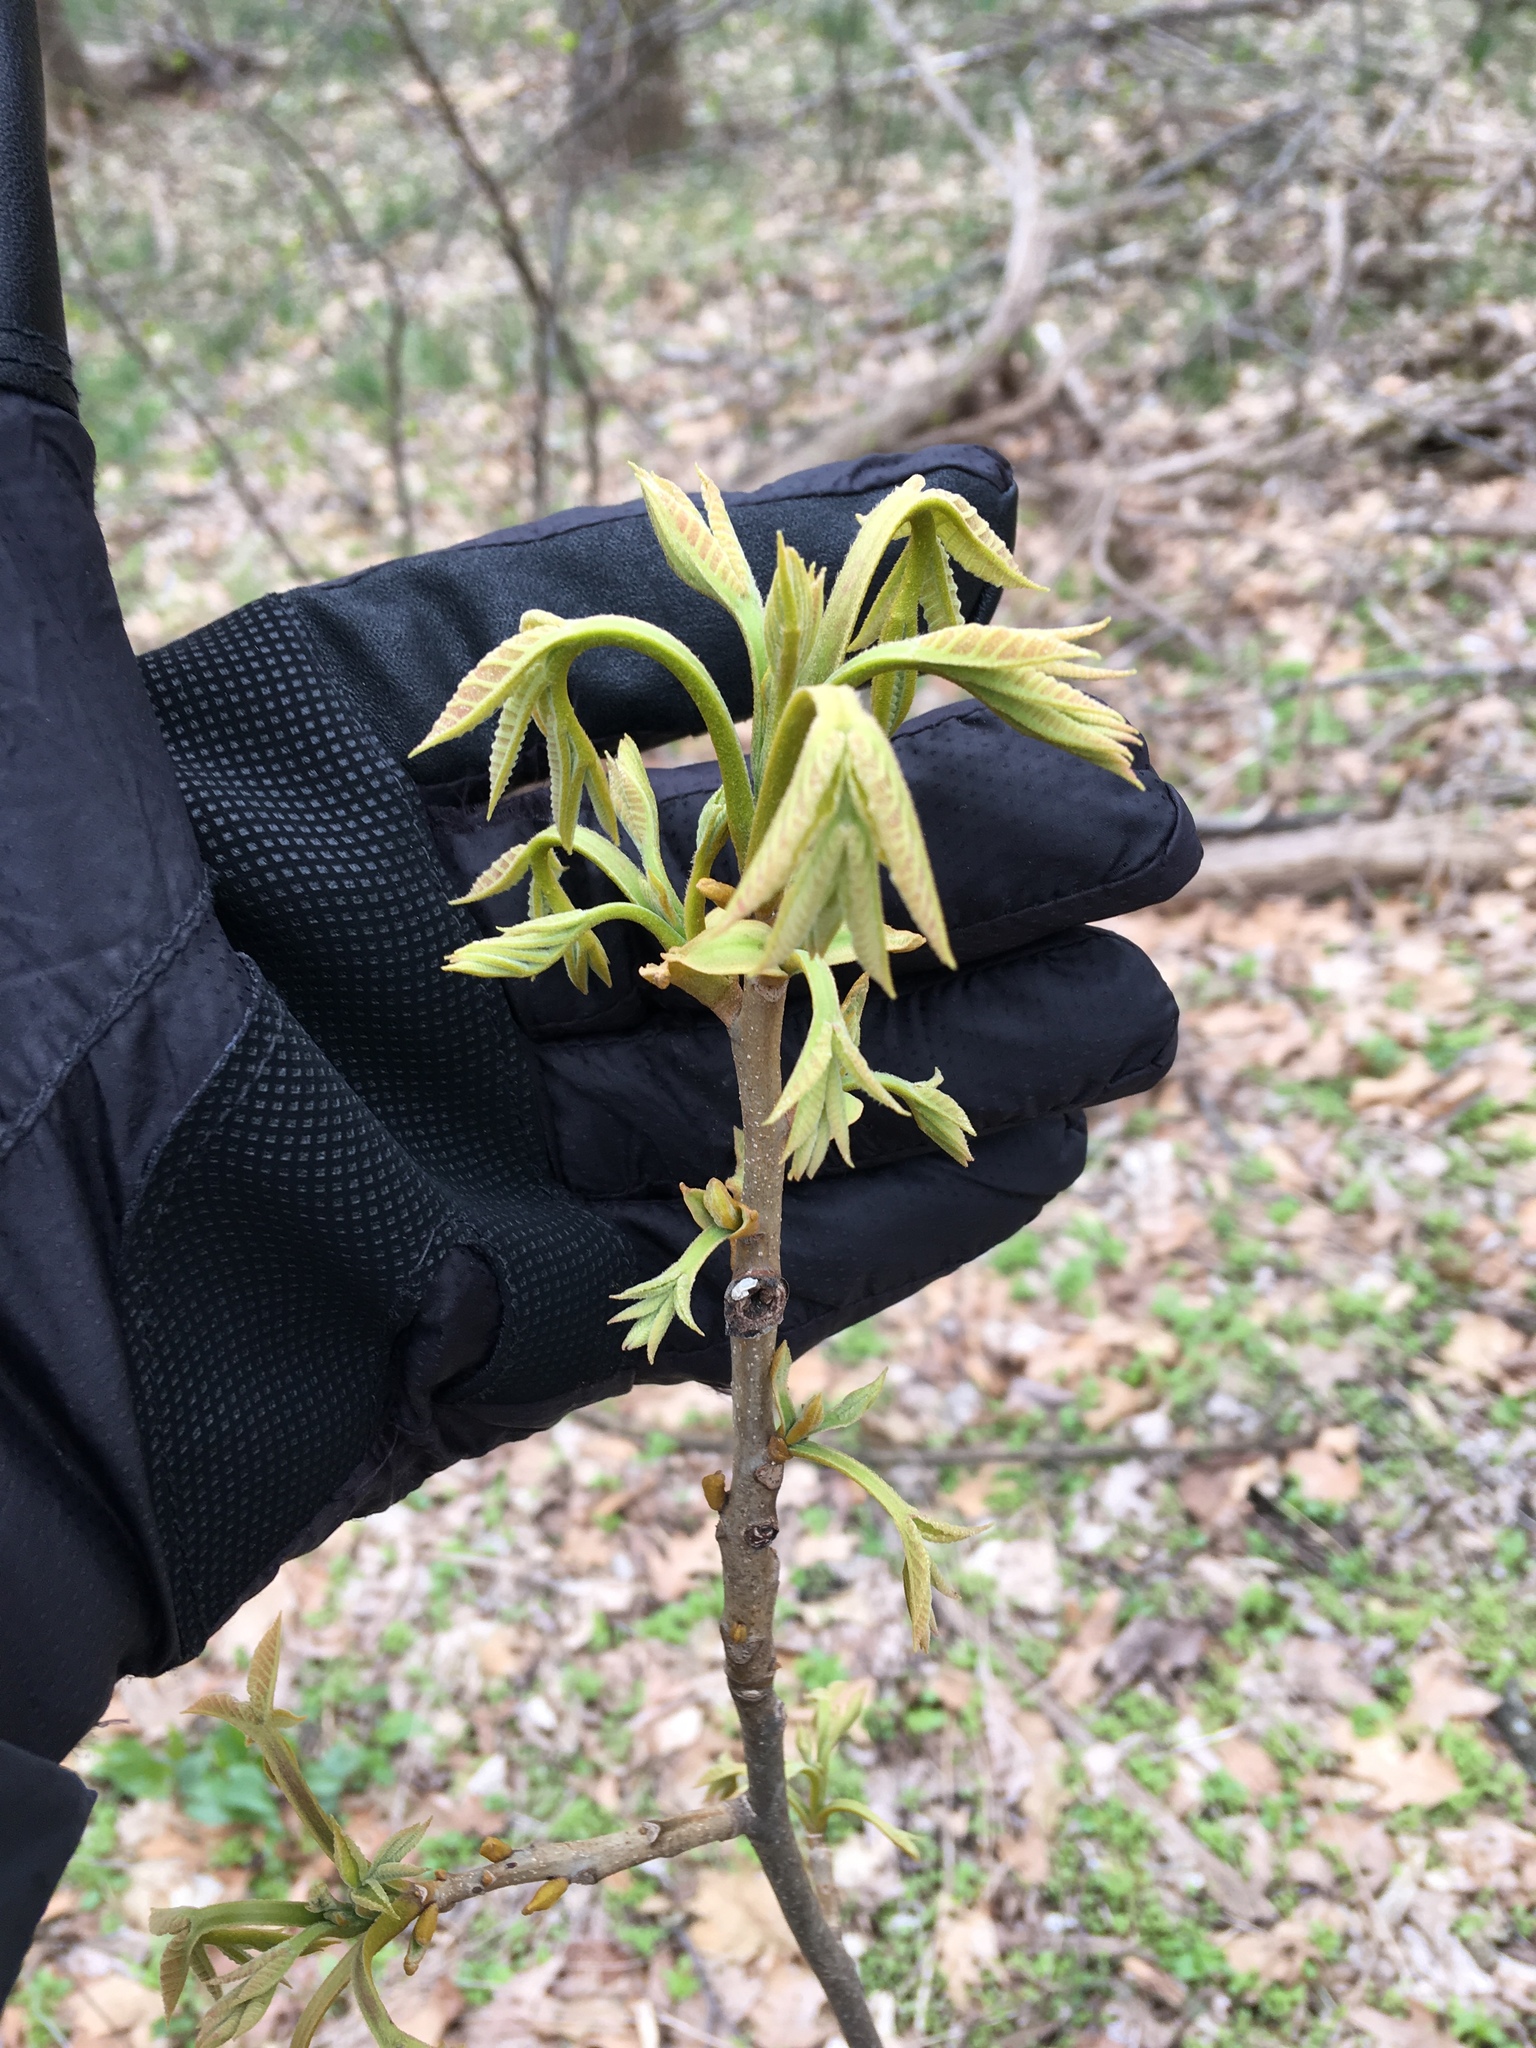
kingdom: Plantae
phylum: Tracheophyta
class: Magnoliopsida
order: Fagales
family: Juglandaceae
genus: Carya
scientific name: Carya cordiformis
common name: Bitternut hickory
